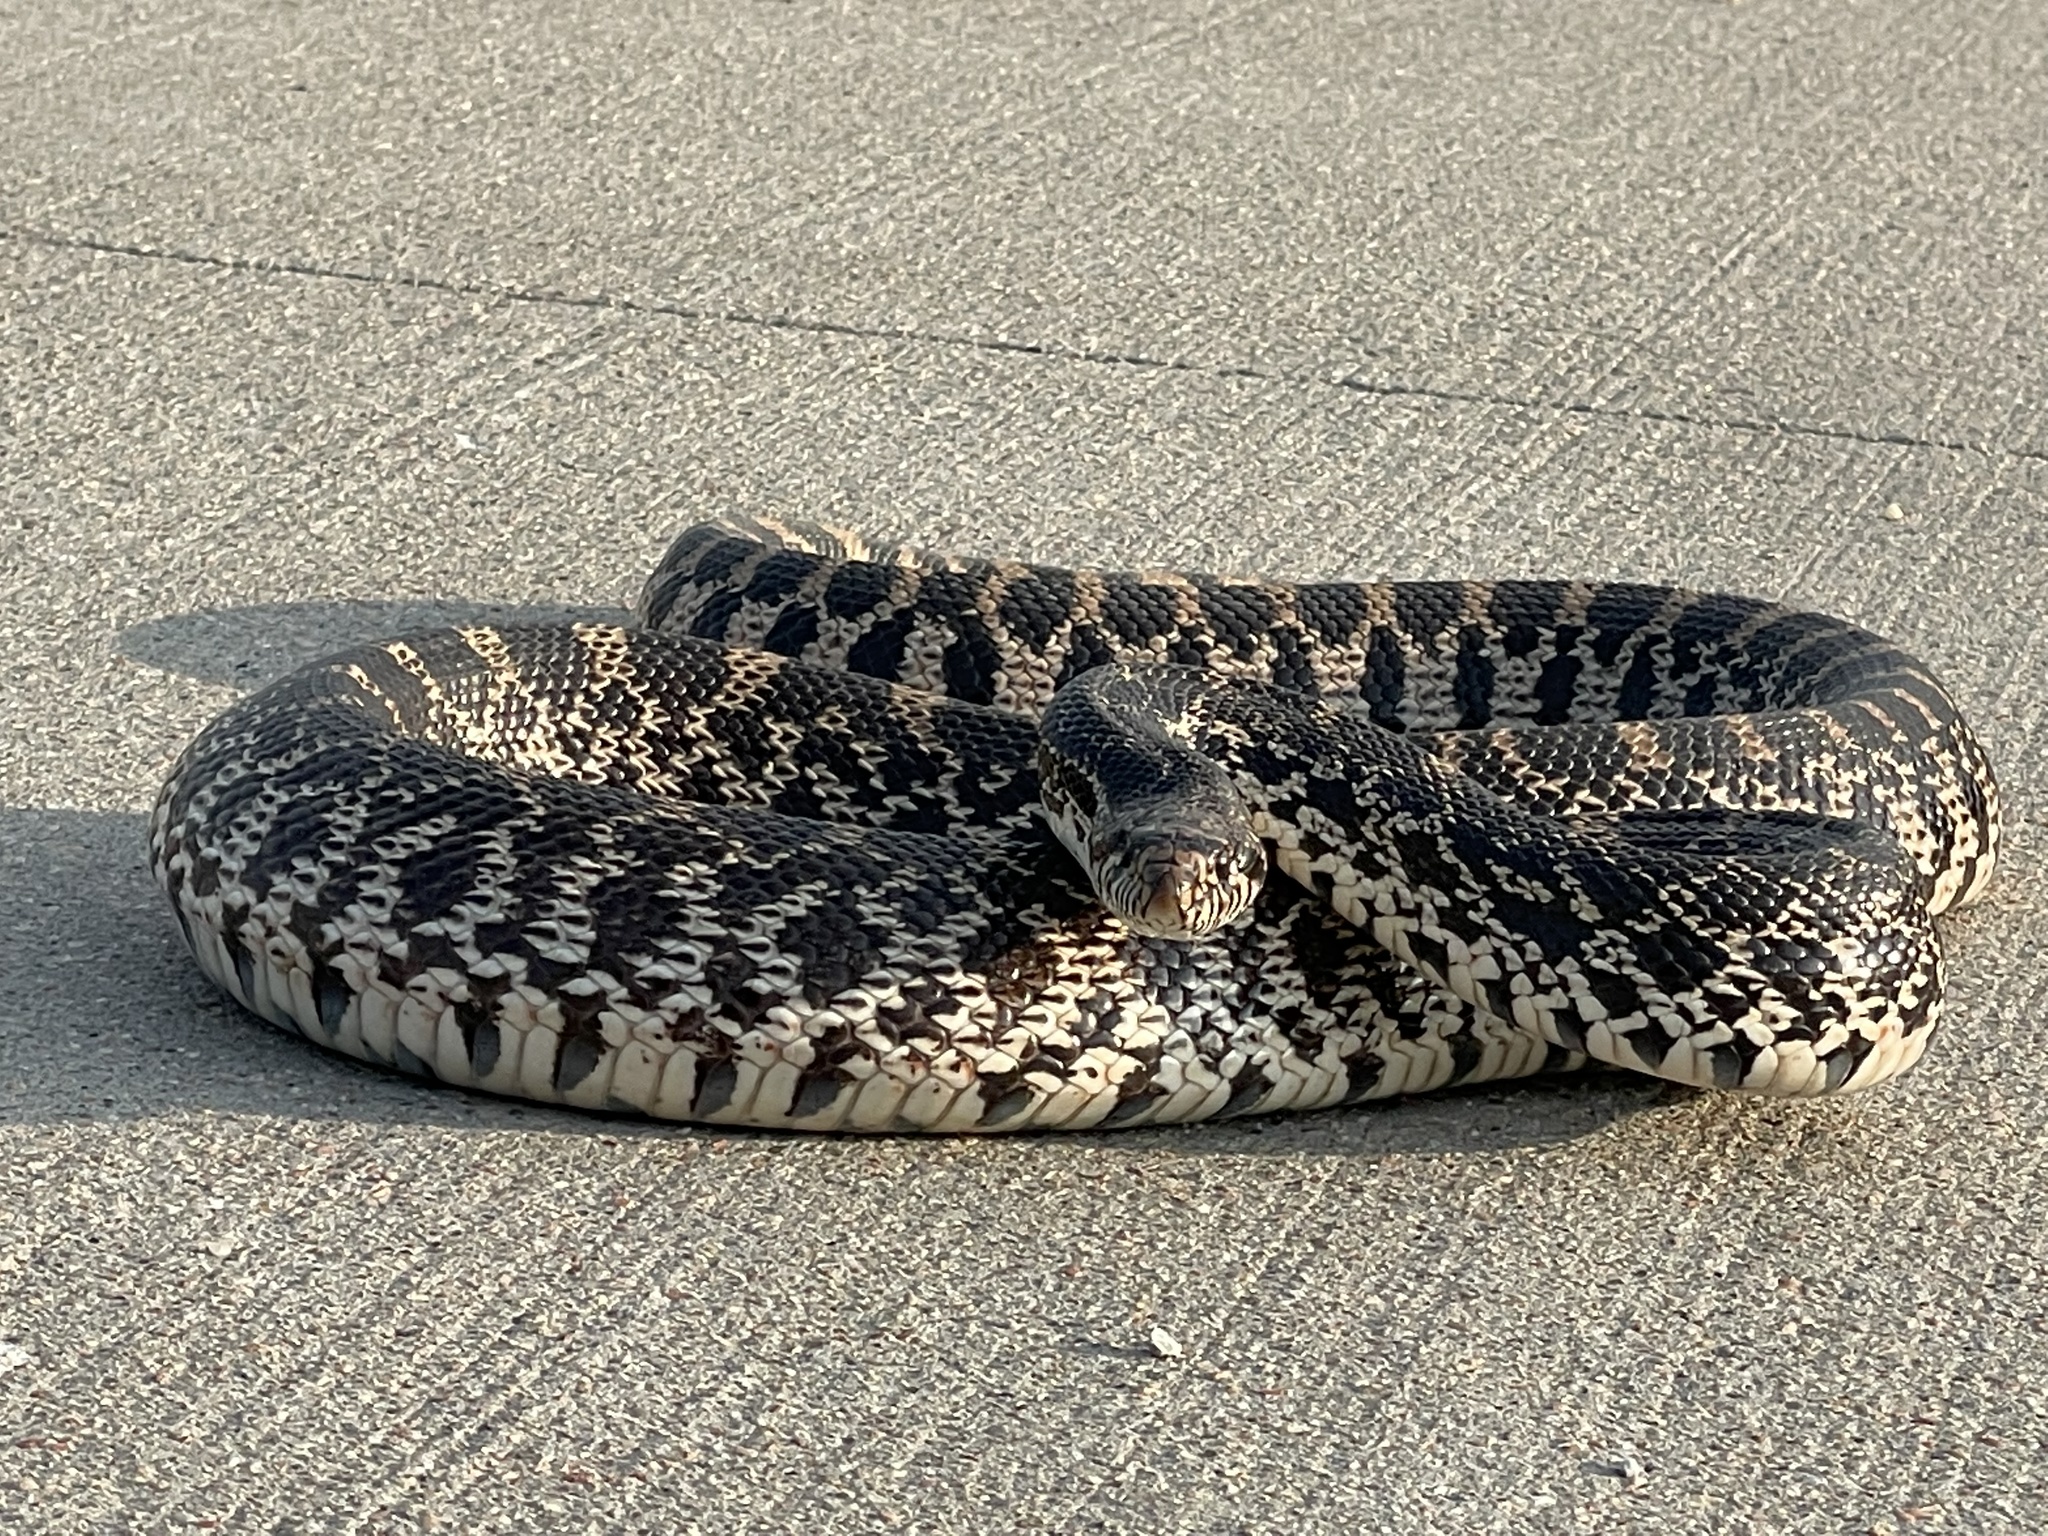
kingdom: Animalia
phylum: Chordata
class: Squamata
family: Colubridae
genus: Pituophis
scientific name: Pituophis catenifer
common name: Gopher snake
